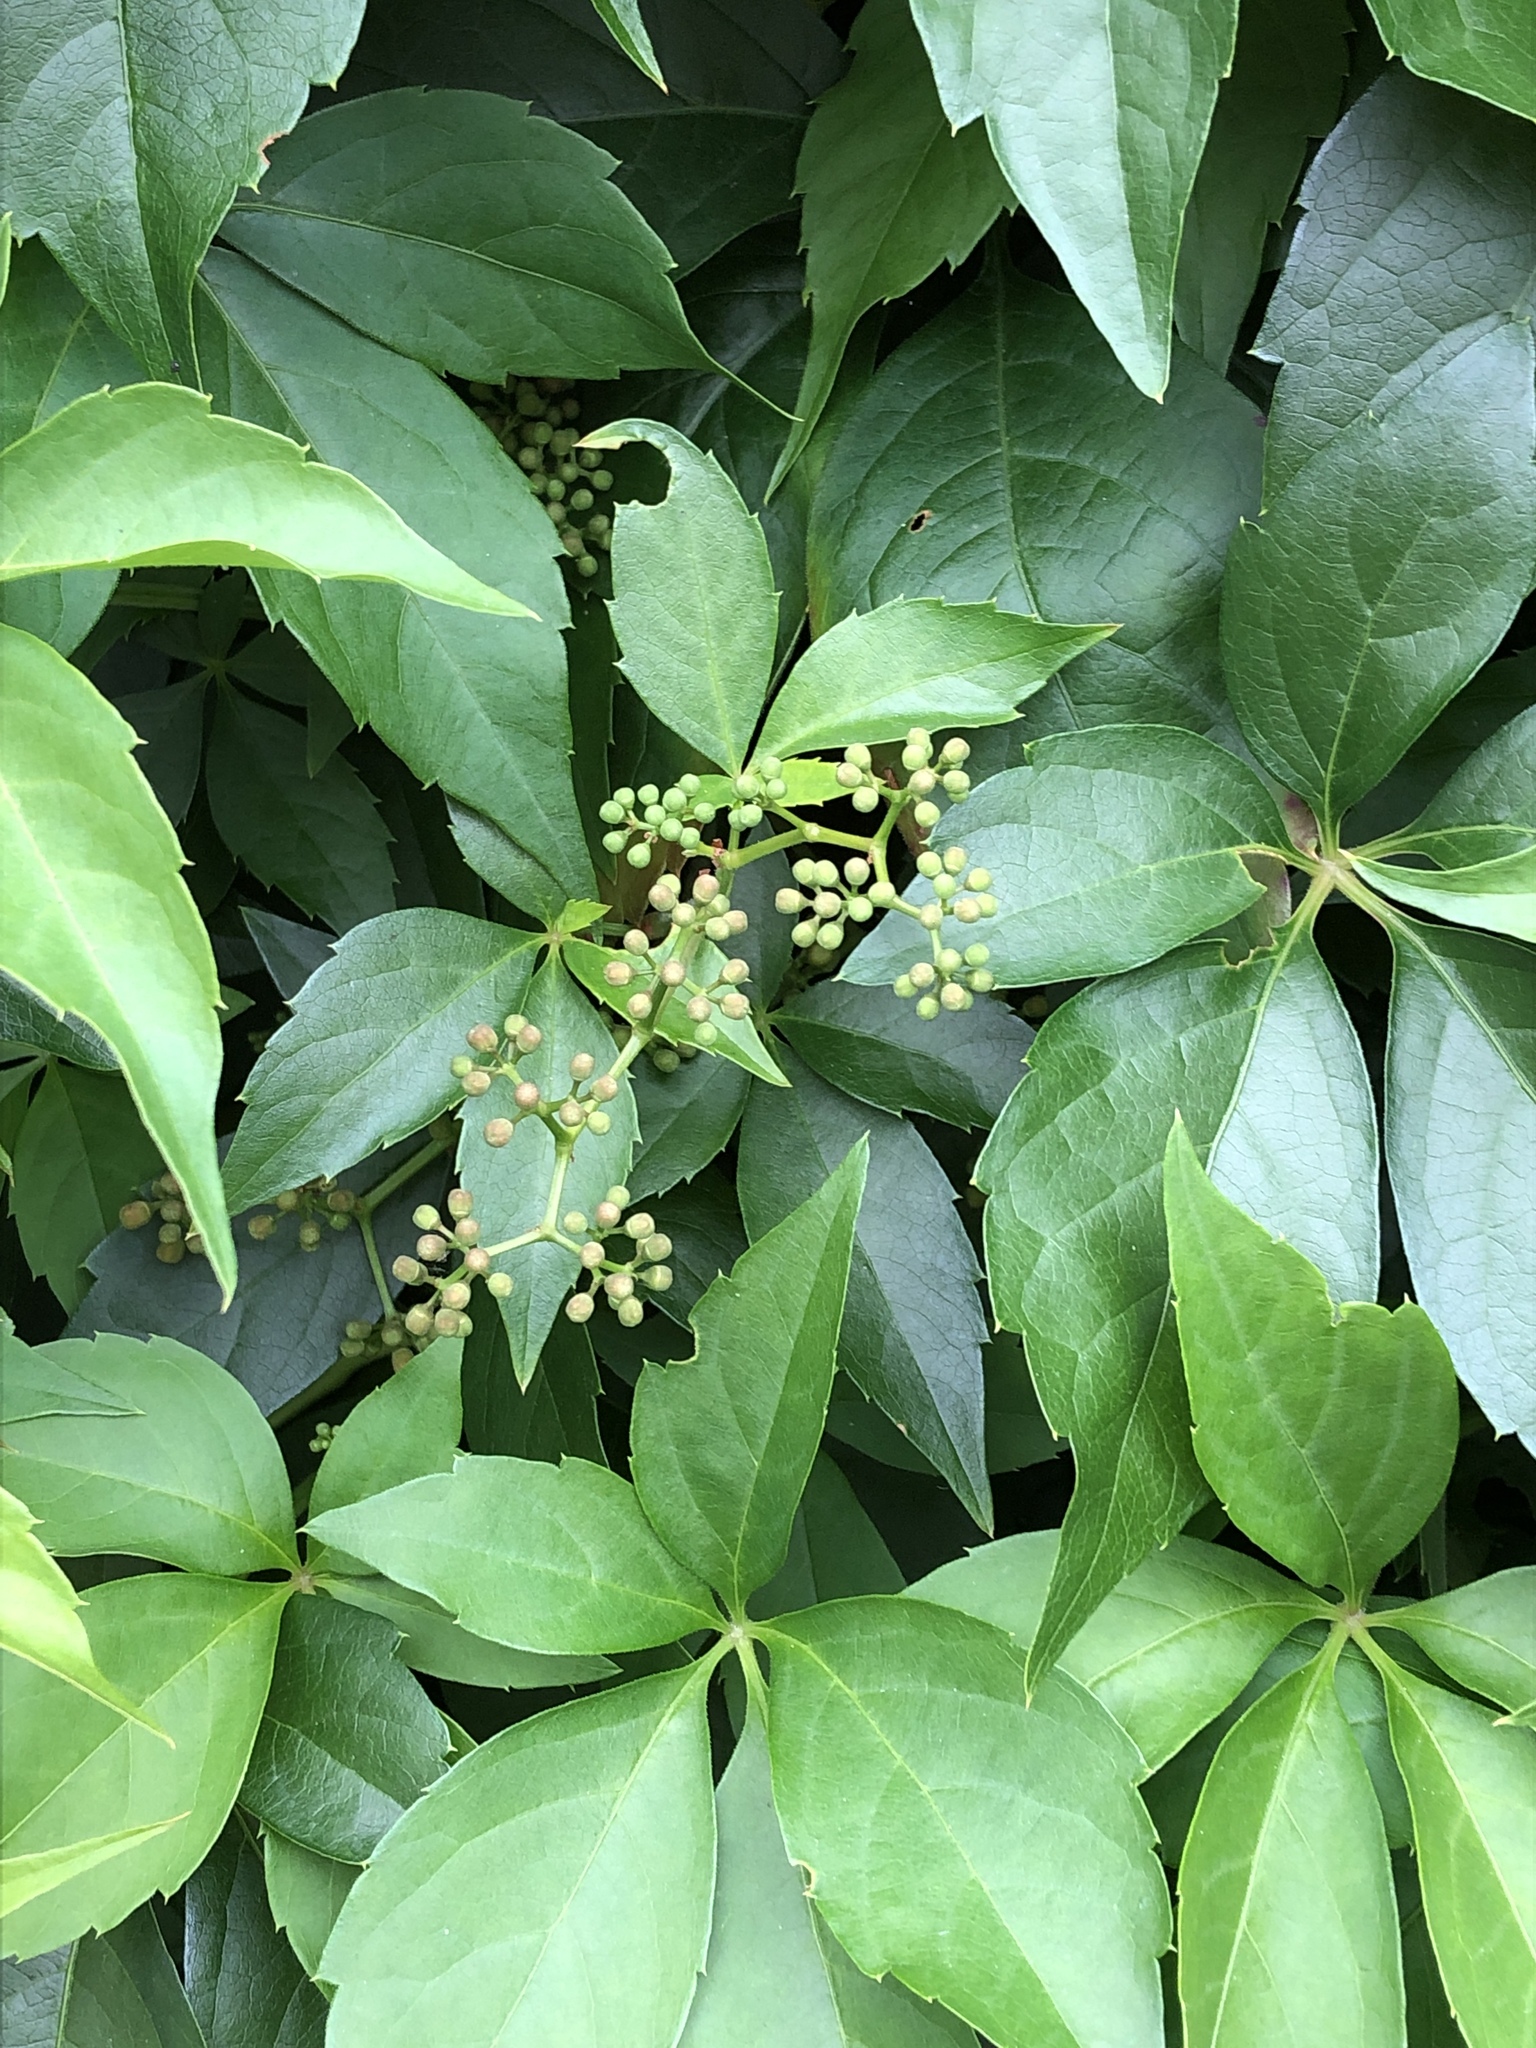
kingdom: Plantae
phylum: Tracheophyta
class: Magnoliopsida
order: Vitales
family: Vitaceae
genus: Parthenocissus
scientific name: Parthenocissus quinquefolia
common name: Virginia-creeper
